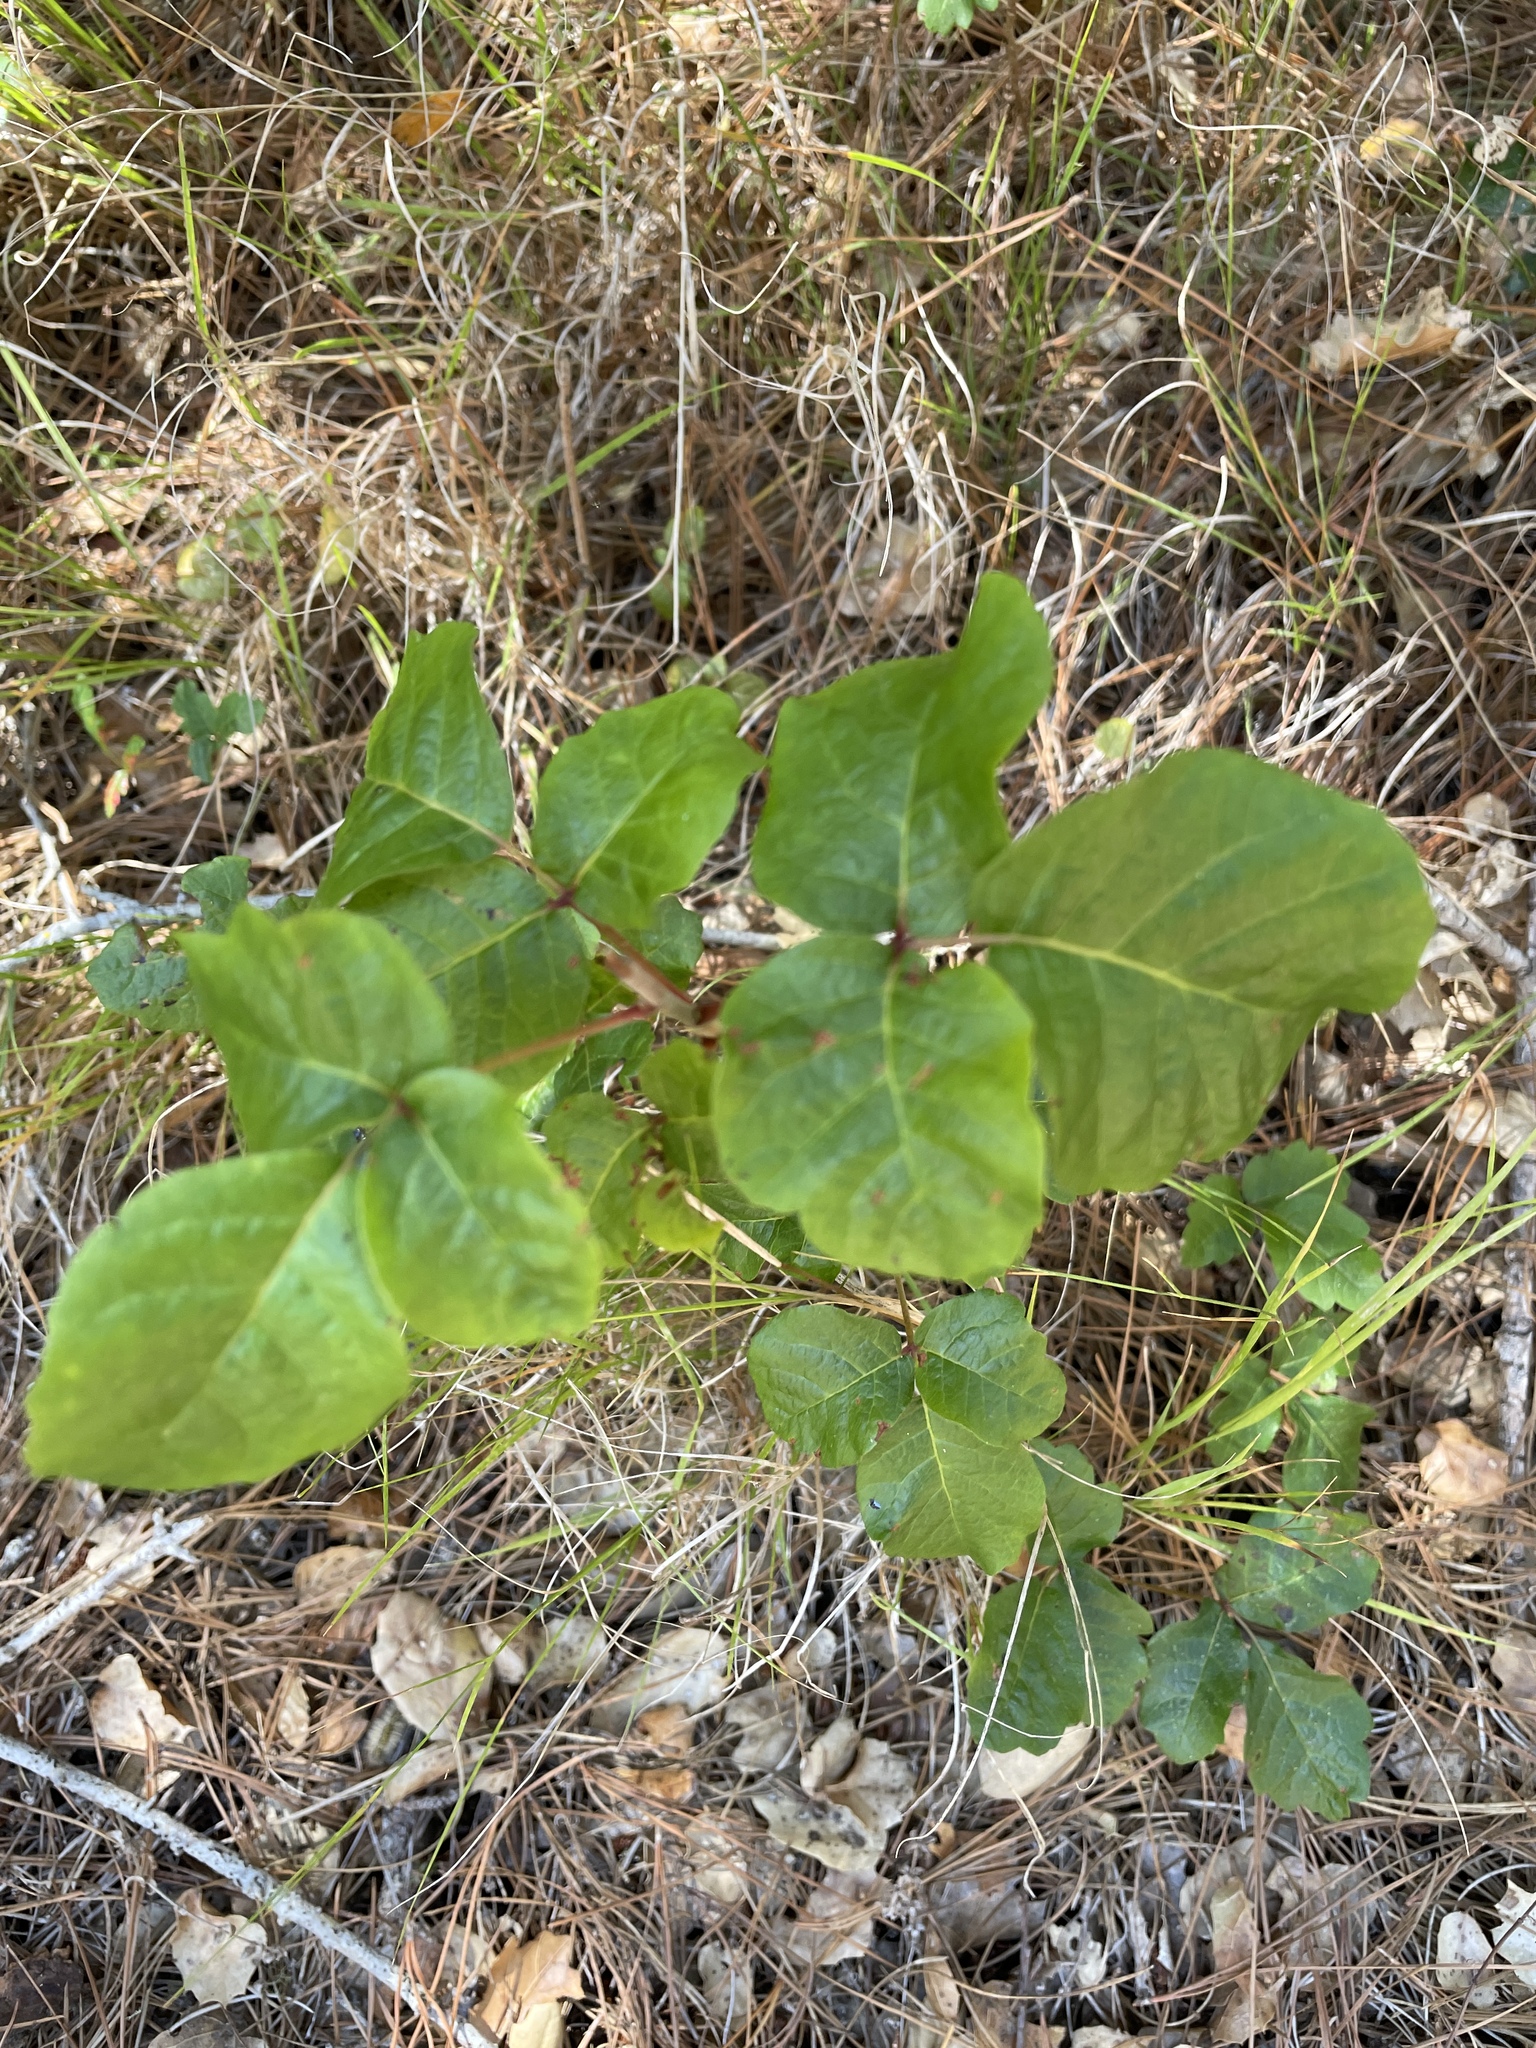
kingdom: Plantae
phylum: Tracheophyta
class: Magnoliopsida
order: Sapindales
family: Anacardiaceae
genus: Toxicodendron
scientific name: Toxicodendron diversilobum
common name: Pacific poison-oak
